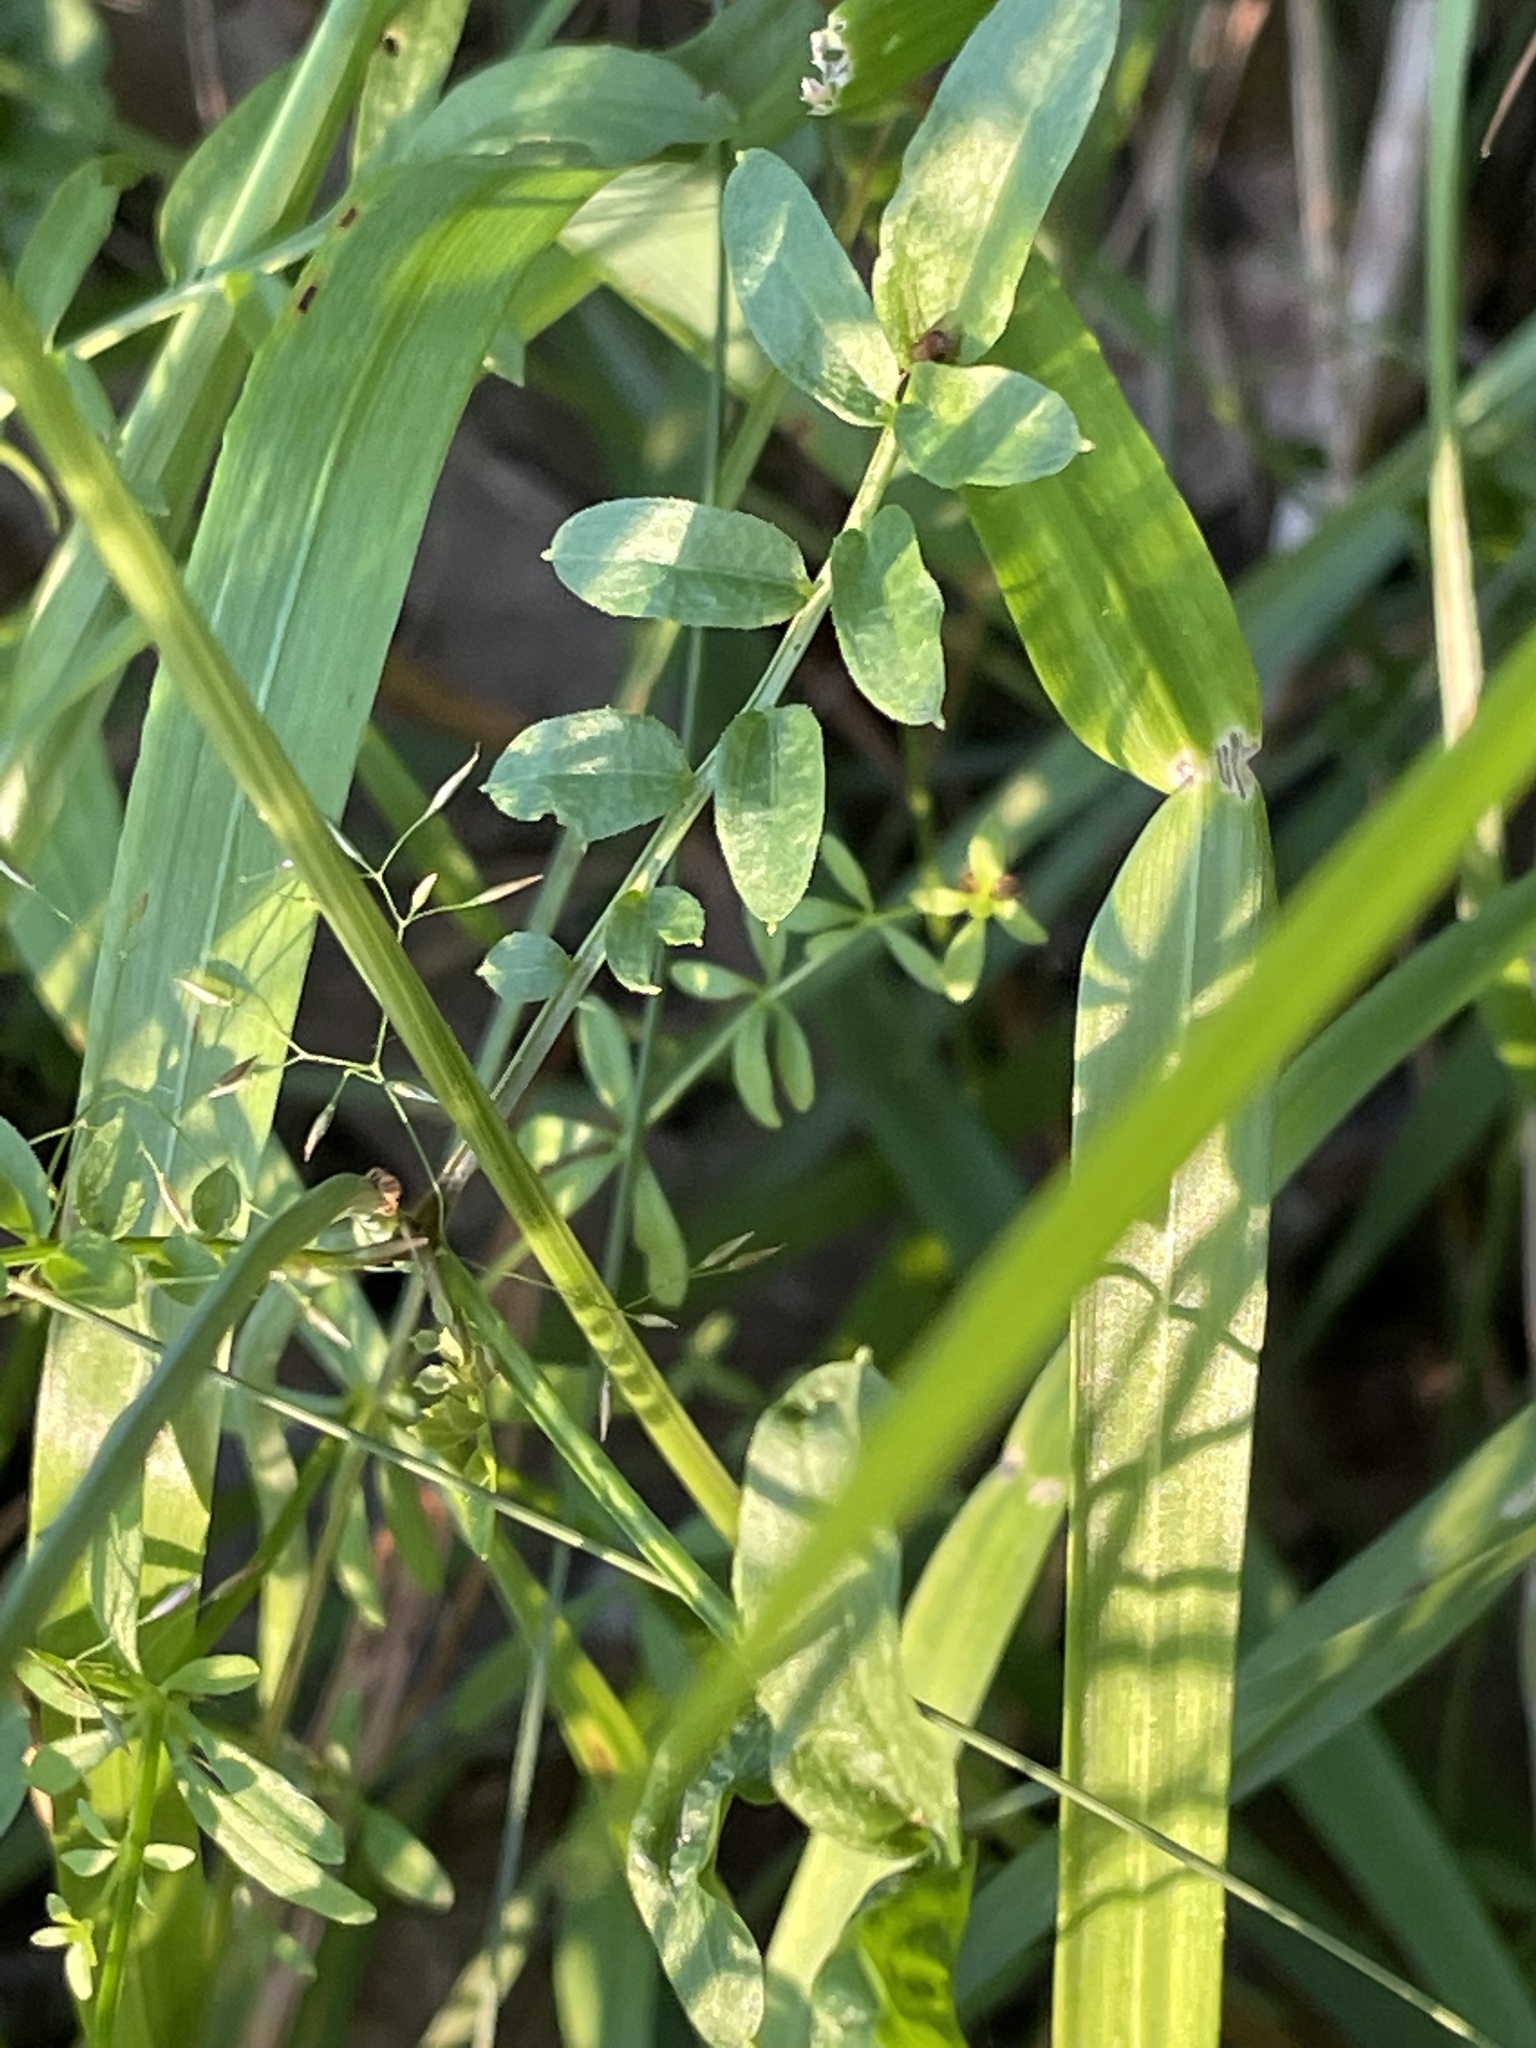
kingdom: Plantae
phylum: Tracheophyta
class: Magnoliopsida
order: Brassicales
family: Brassicaceae
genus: Cardamine
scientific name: Cardamine pratensis
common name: Cuckoo flower
